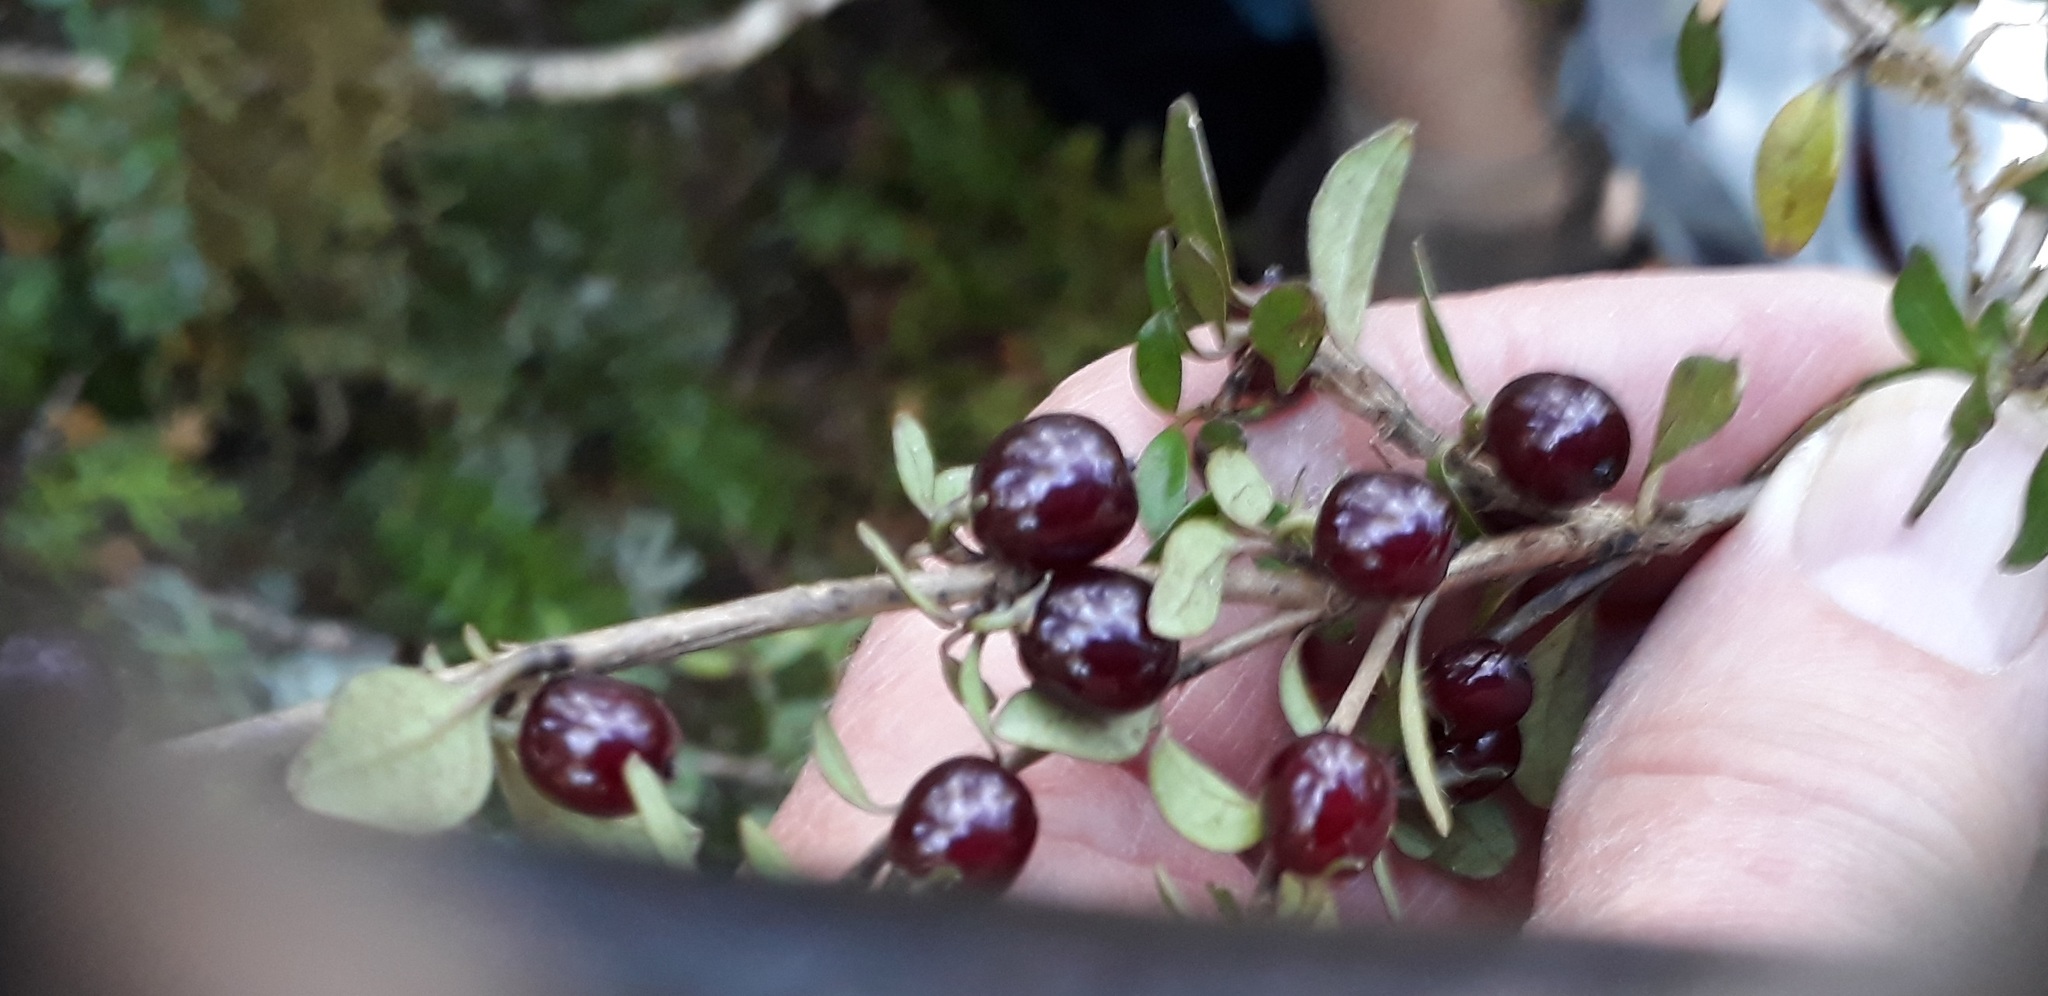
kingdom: Plantae
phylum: Tracheophyta
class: Magnoliopsida
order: Gentianales
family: Rubiaceae
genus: Coprosma
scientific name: Coprosma rhamnoides
